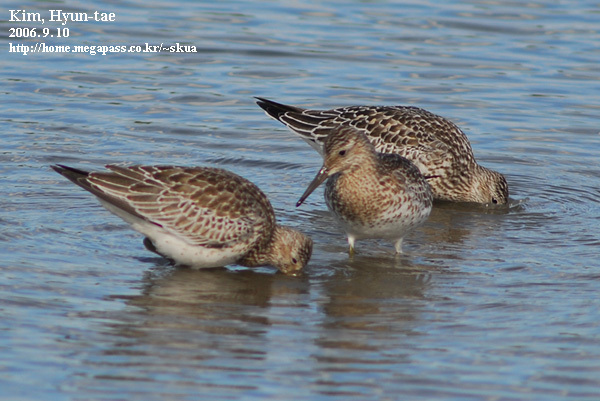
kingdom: Animalia
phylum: Chordata
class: Aves
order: Charadriiformes
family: Scolopacidae
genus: Calidris
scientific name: Calidris tenuirostris
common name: Great knot
